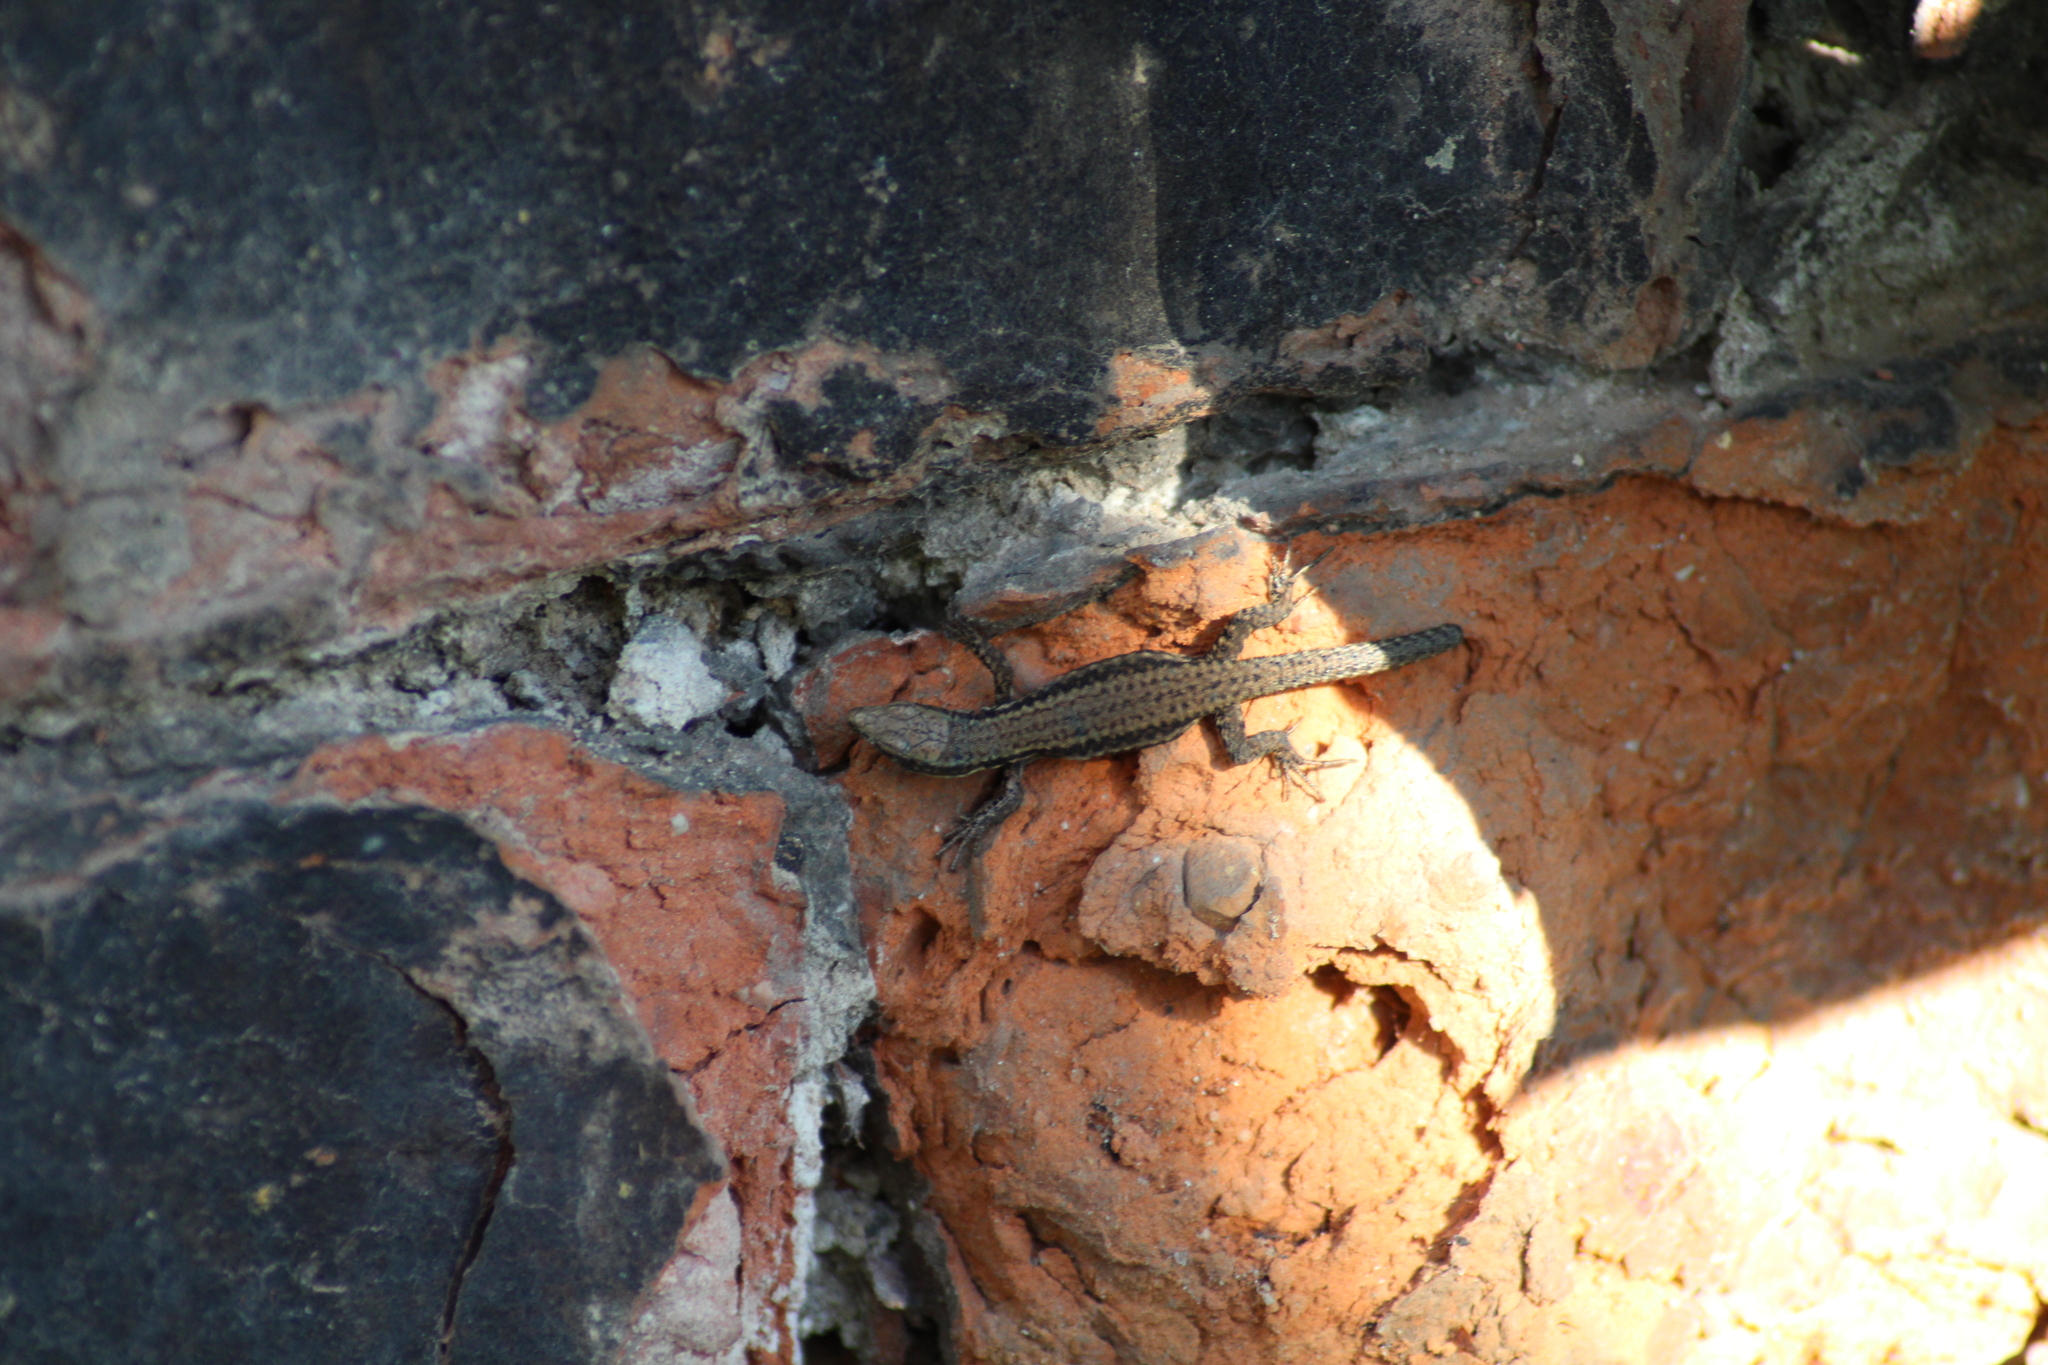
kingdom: Animalia
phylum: Chordata
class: Squamata
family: Lacertidae
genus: Podarcis
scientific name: Podarcis muralis
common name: Common wall lizard
